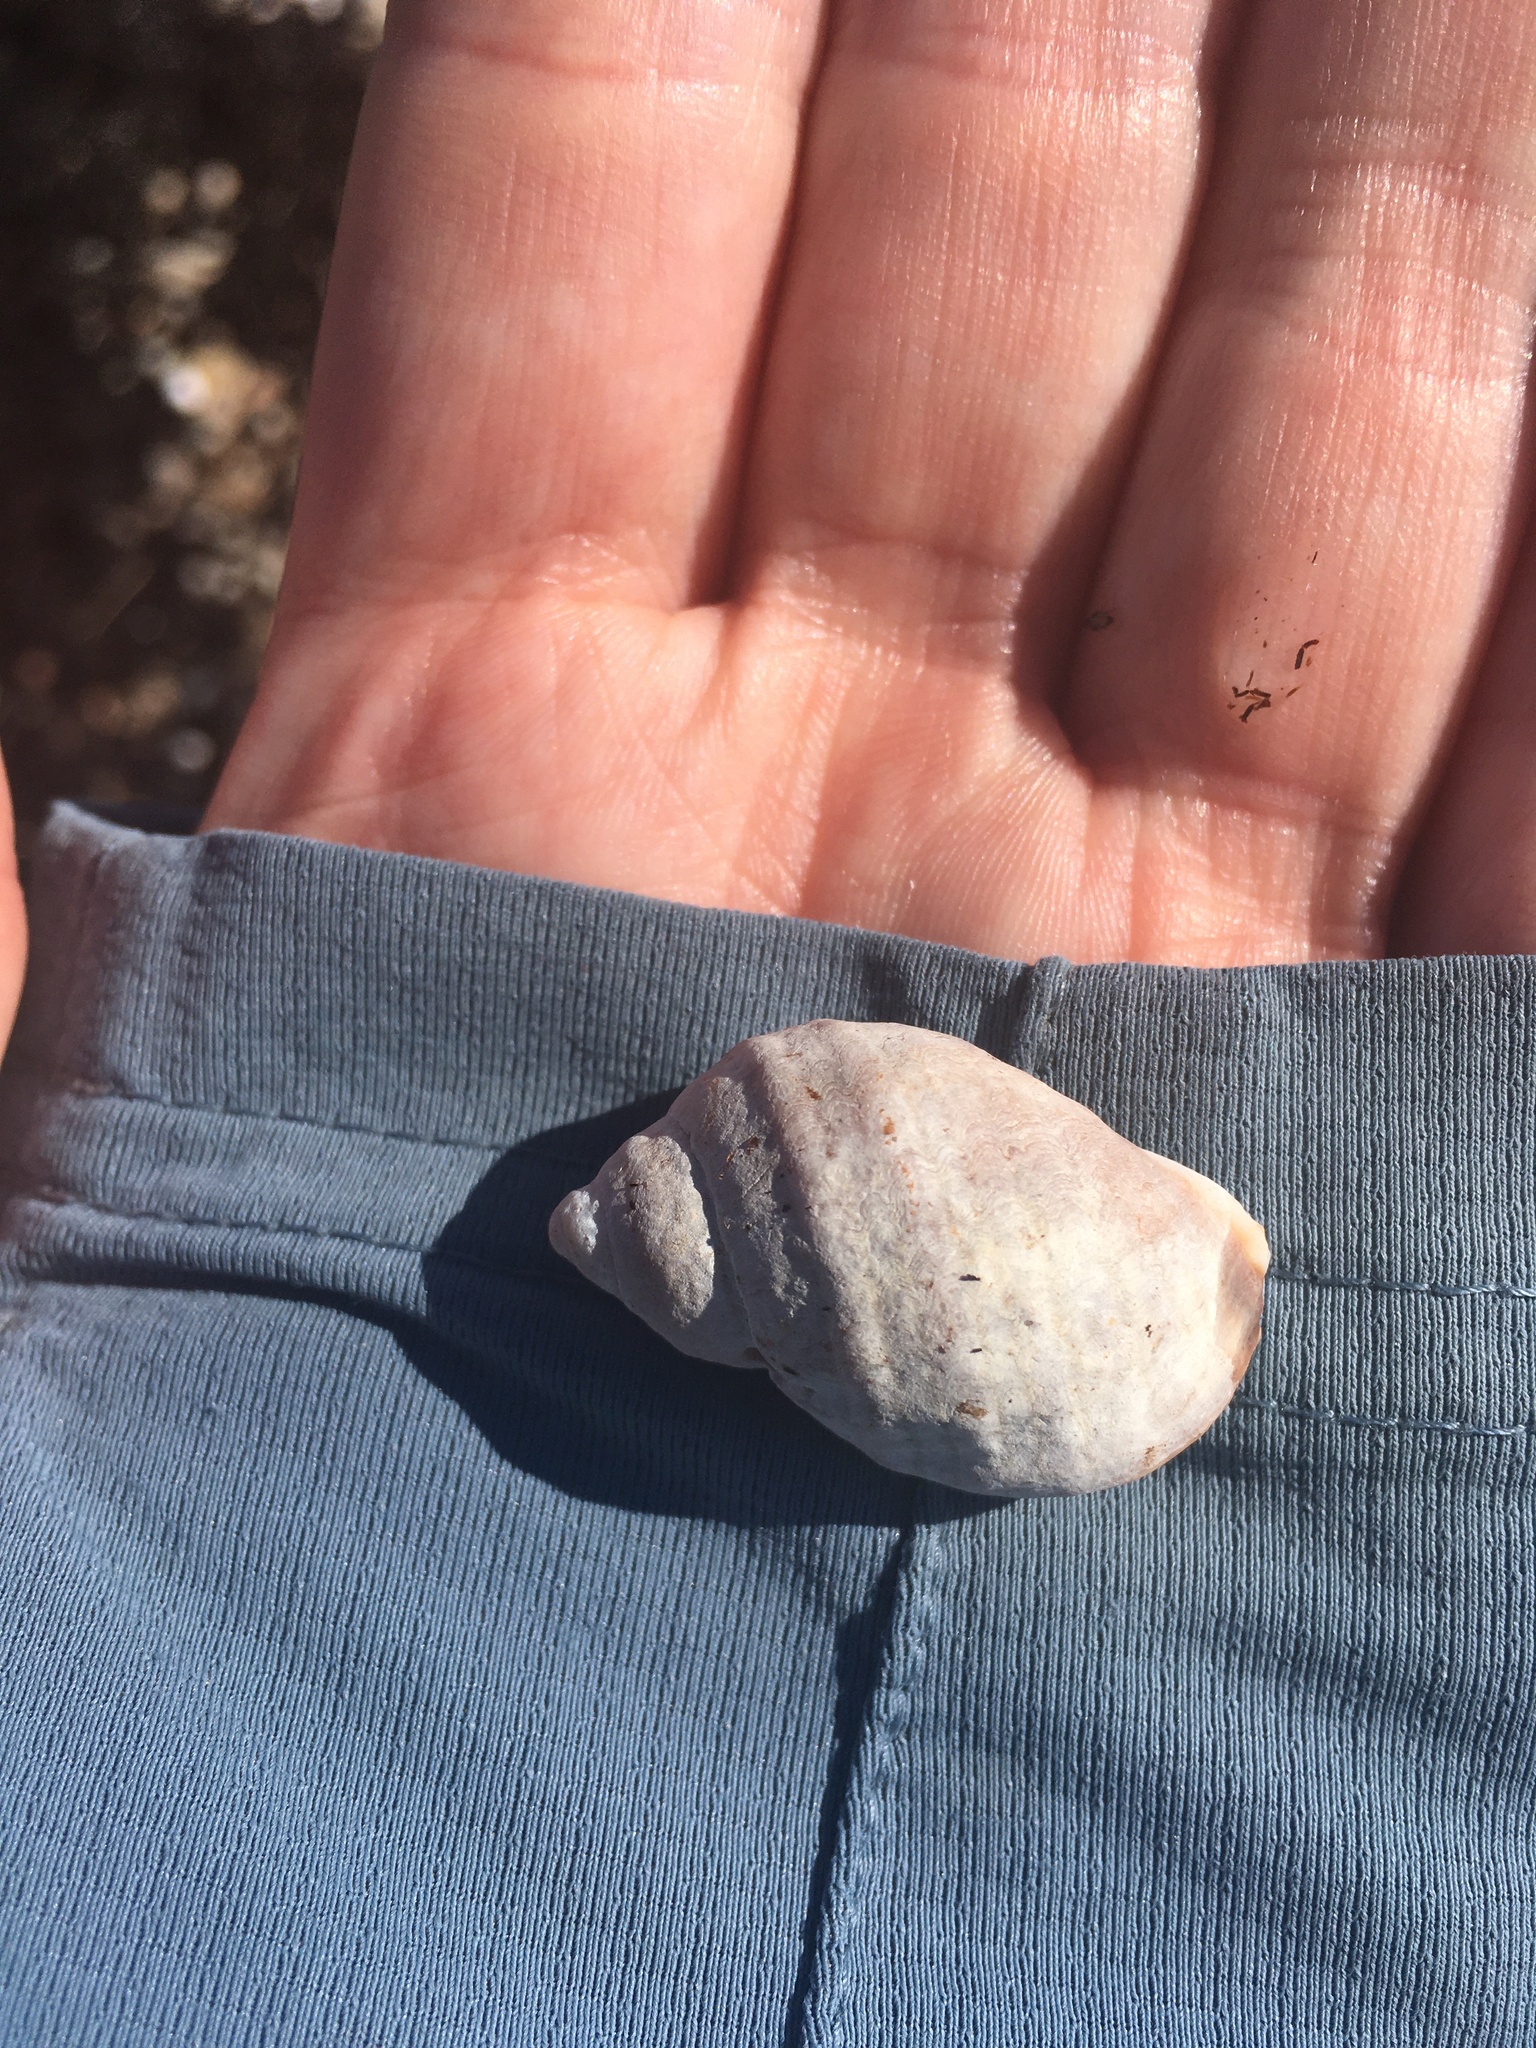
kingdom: Animalia
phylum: Mollusca
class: Gastropoda
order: Neogastropoda
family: Muricidae
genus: Nucella
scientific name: Nucella lapillus
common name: Dog whelk
